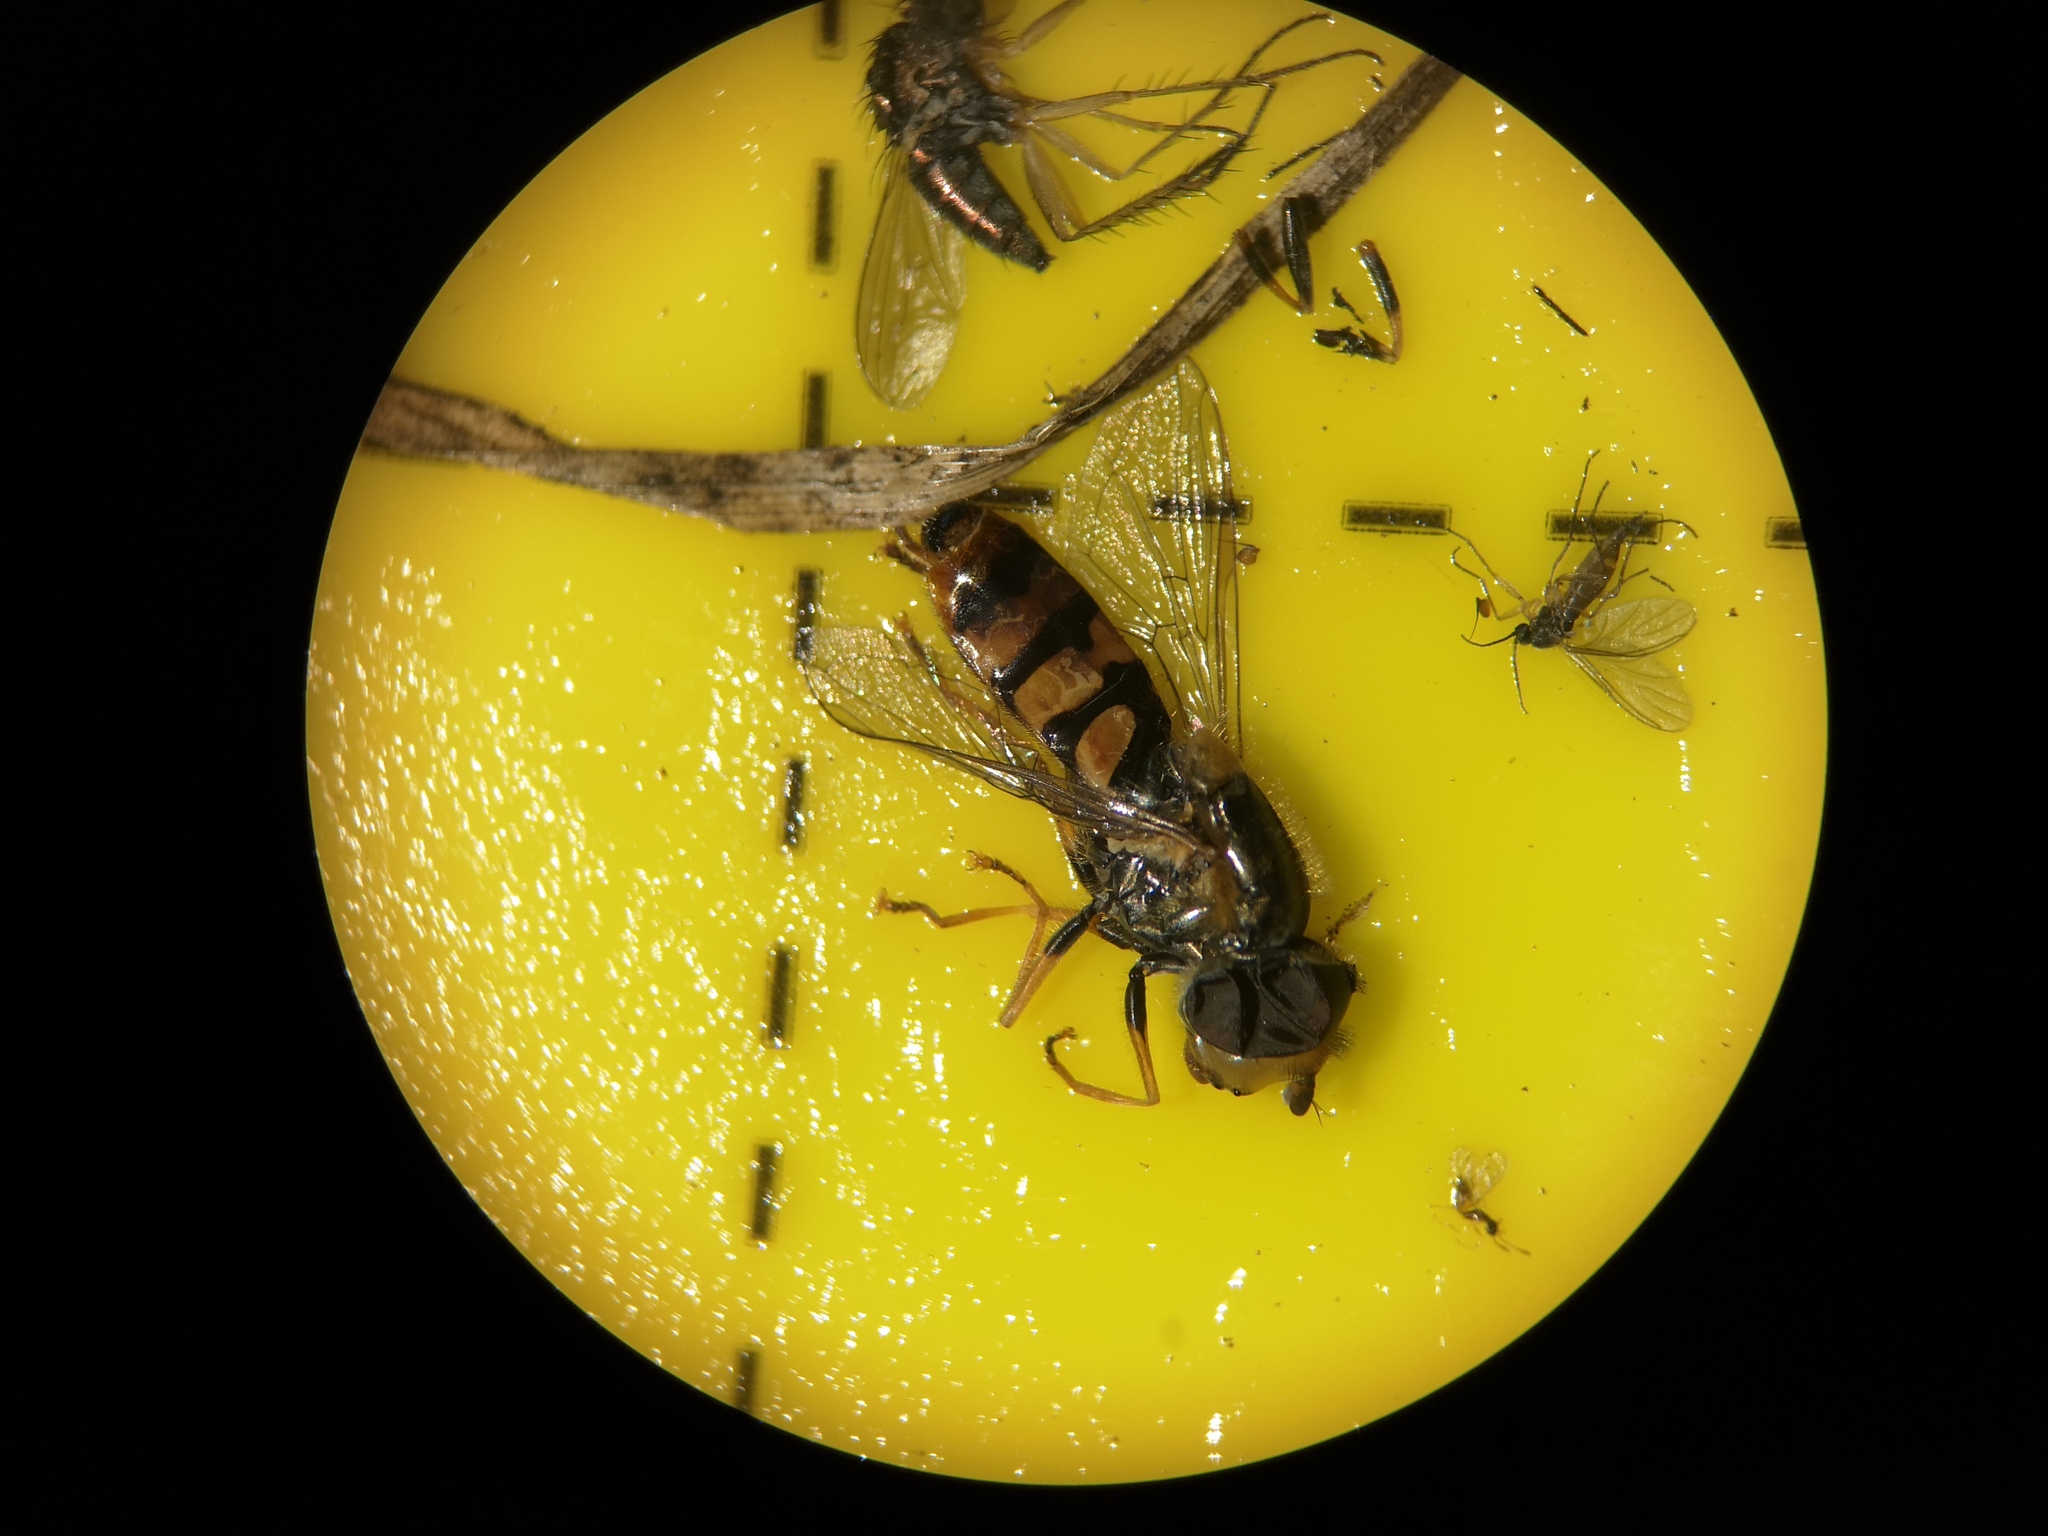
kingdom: Animalia
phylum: Arthropoda
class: Insecta
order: Diptera
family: Syrphidae
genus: Eupeodes
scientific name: Eupeodes corollae
